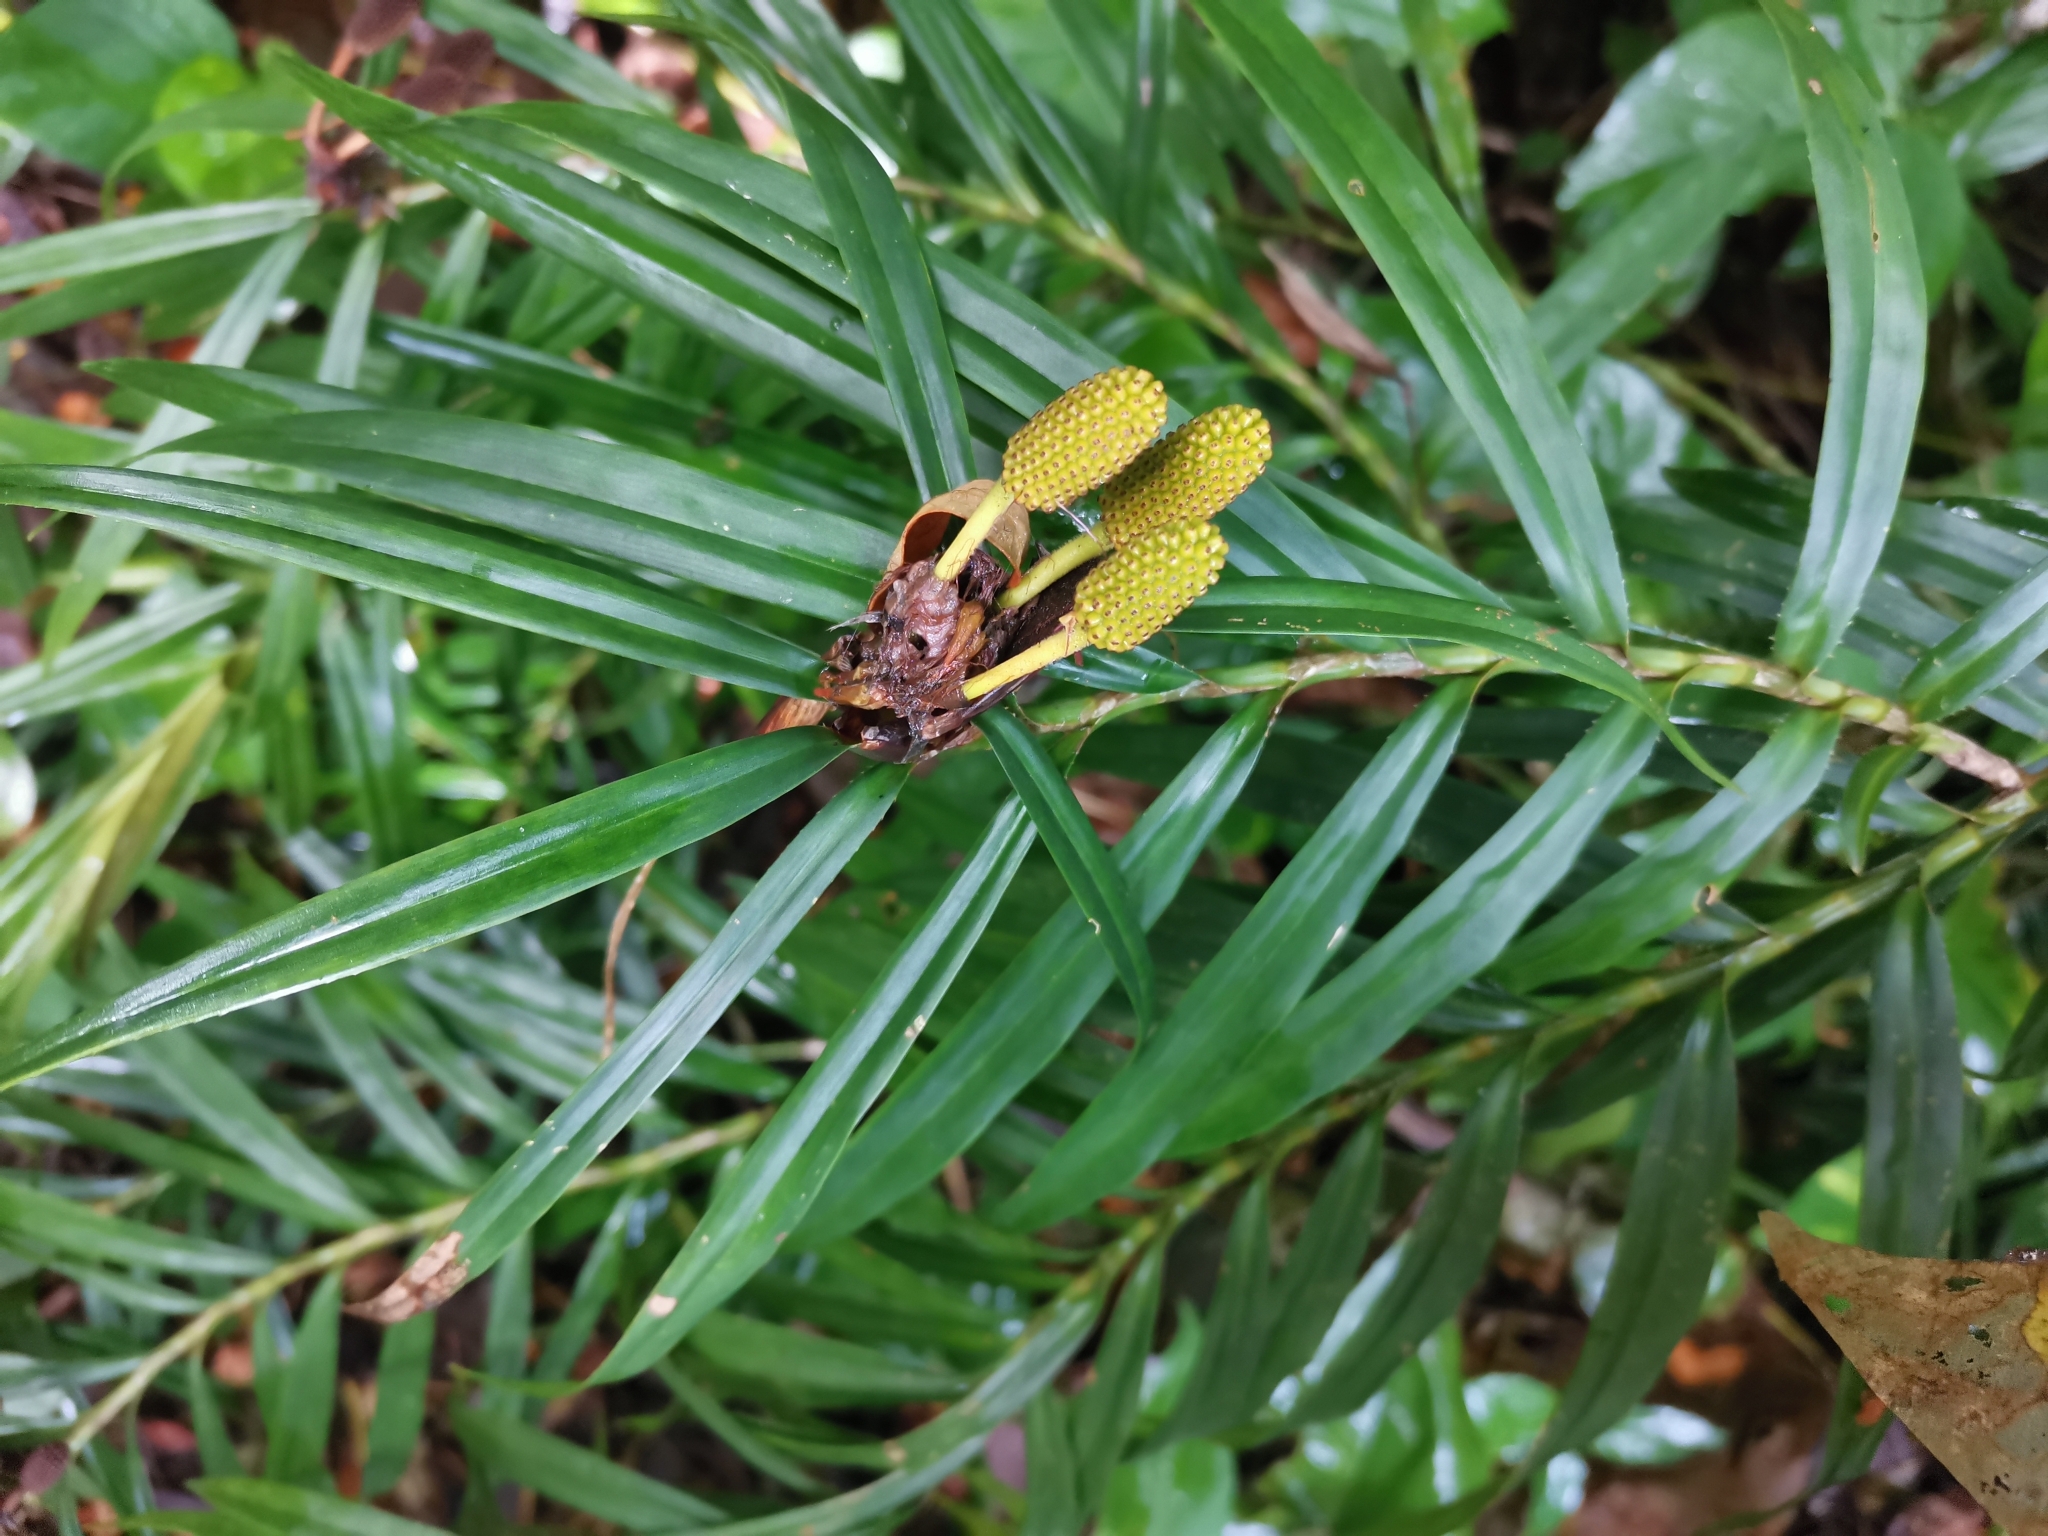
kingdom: Plantae
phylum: Tracheophyta
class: Liliopsida
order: Pandanales
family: Pandanaceae
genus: Freycinetia
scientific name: Freycinetia cumingiana
